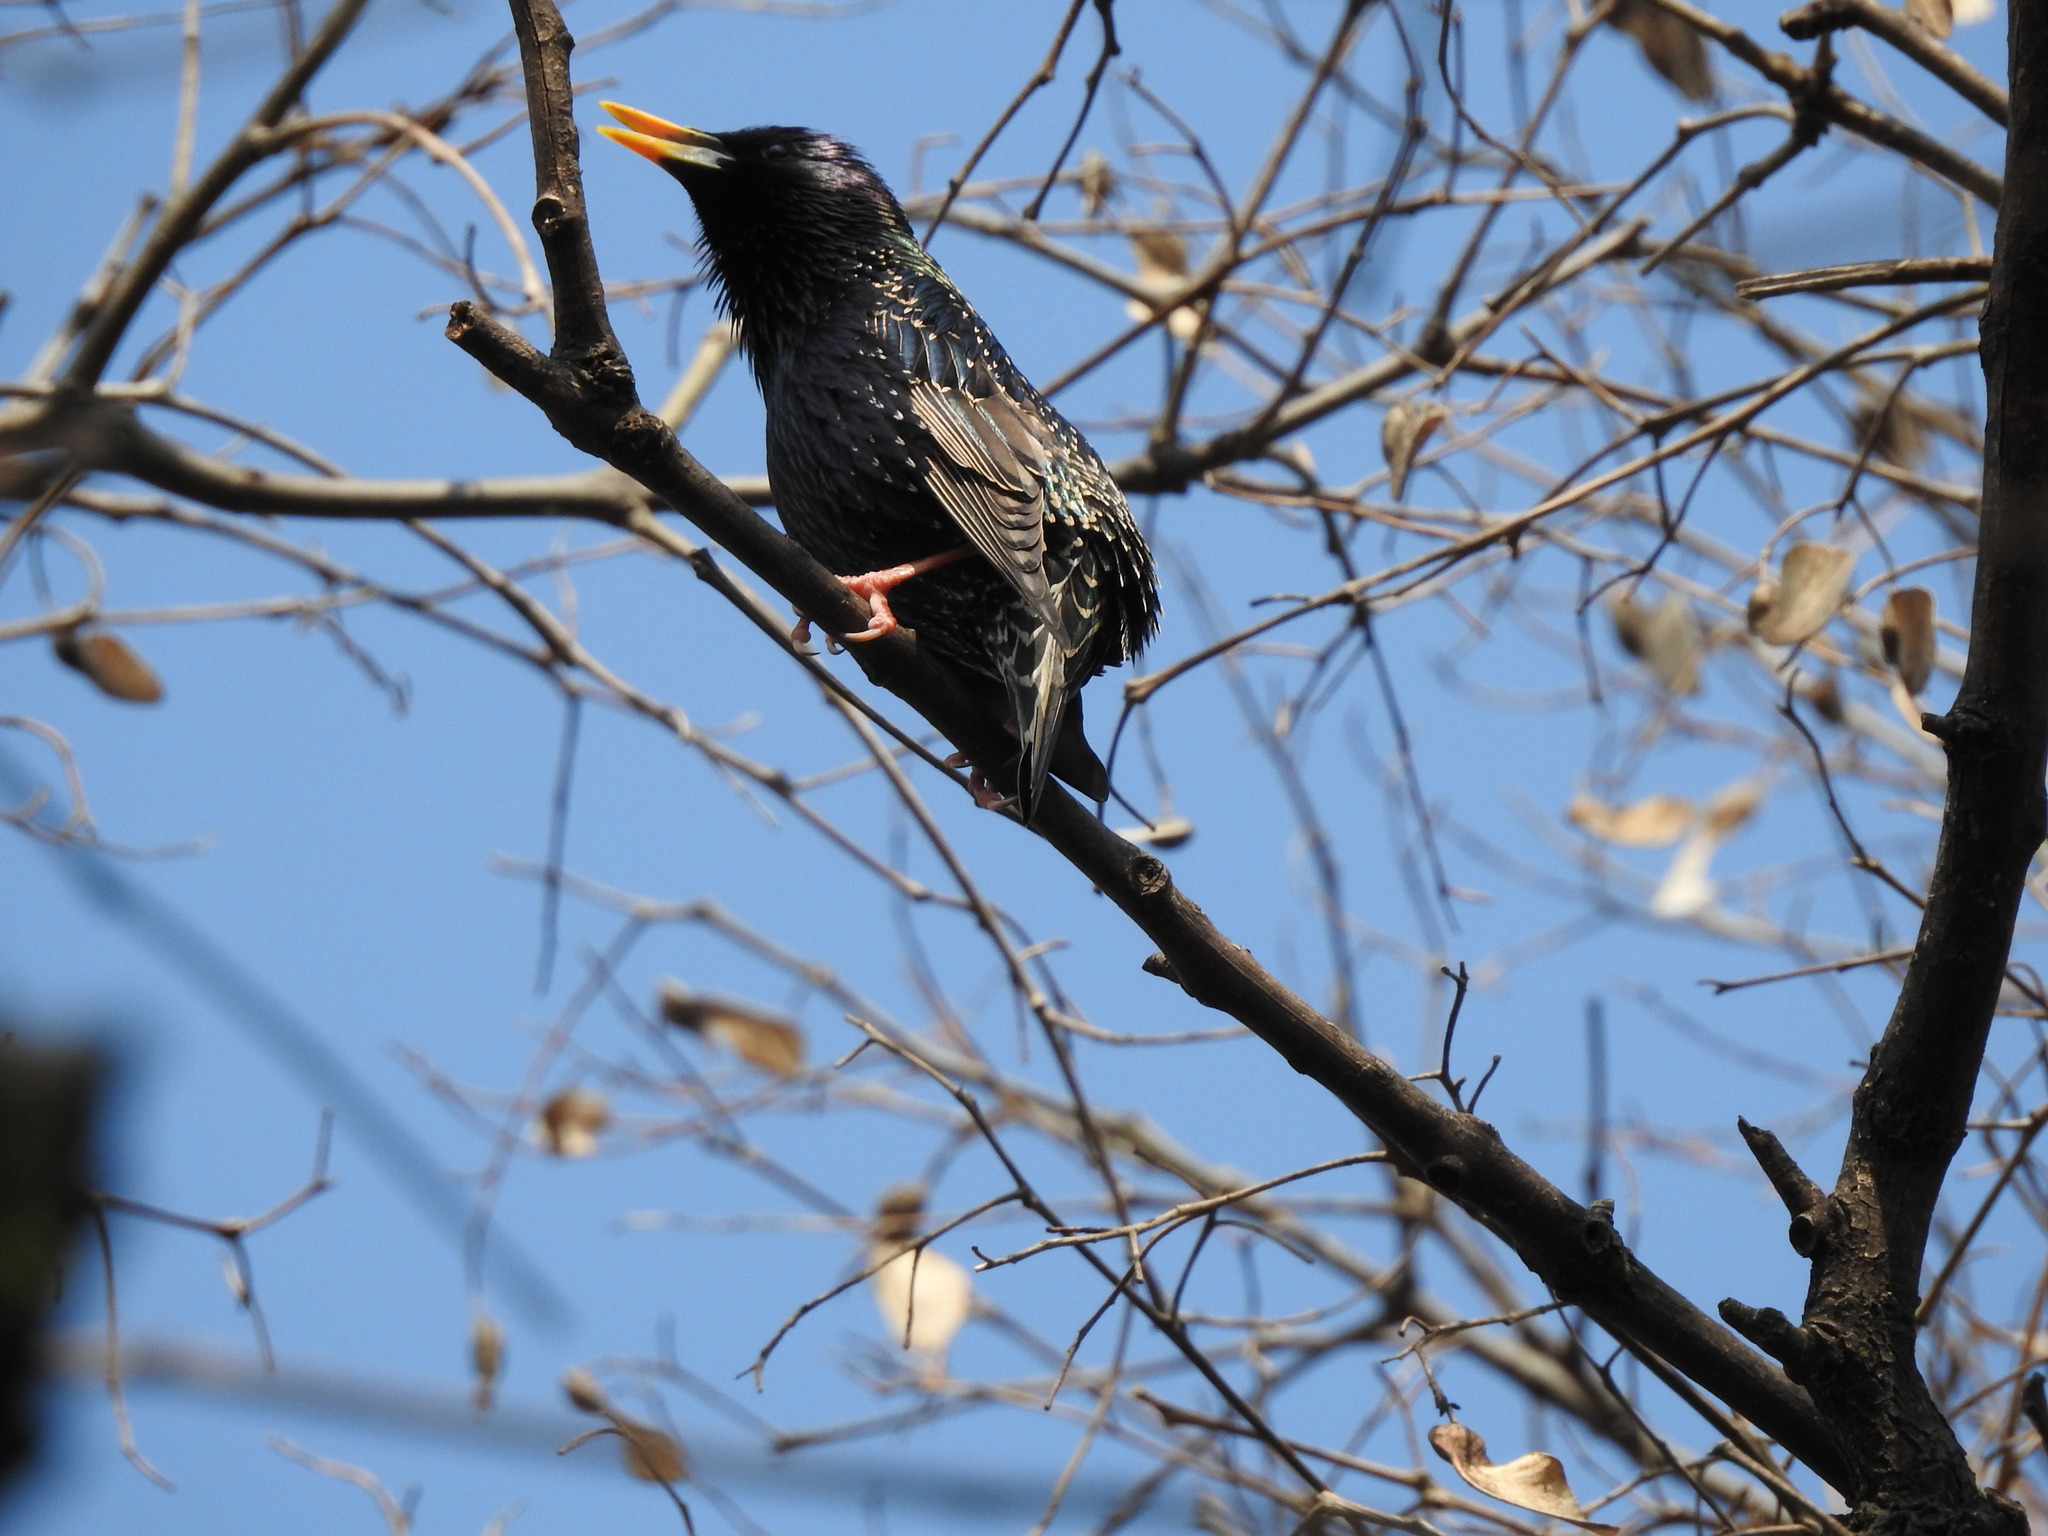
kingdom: Animalia
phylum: Chordata
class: Aves
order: Passeriformes
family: Sturnidae
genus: Sturnus
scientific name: Sturnus vulgaris
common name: Common starling
